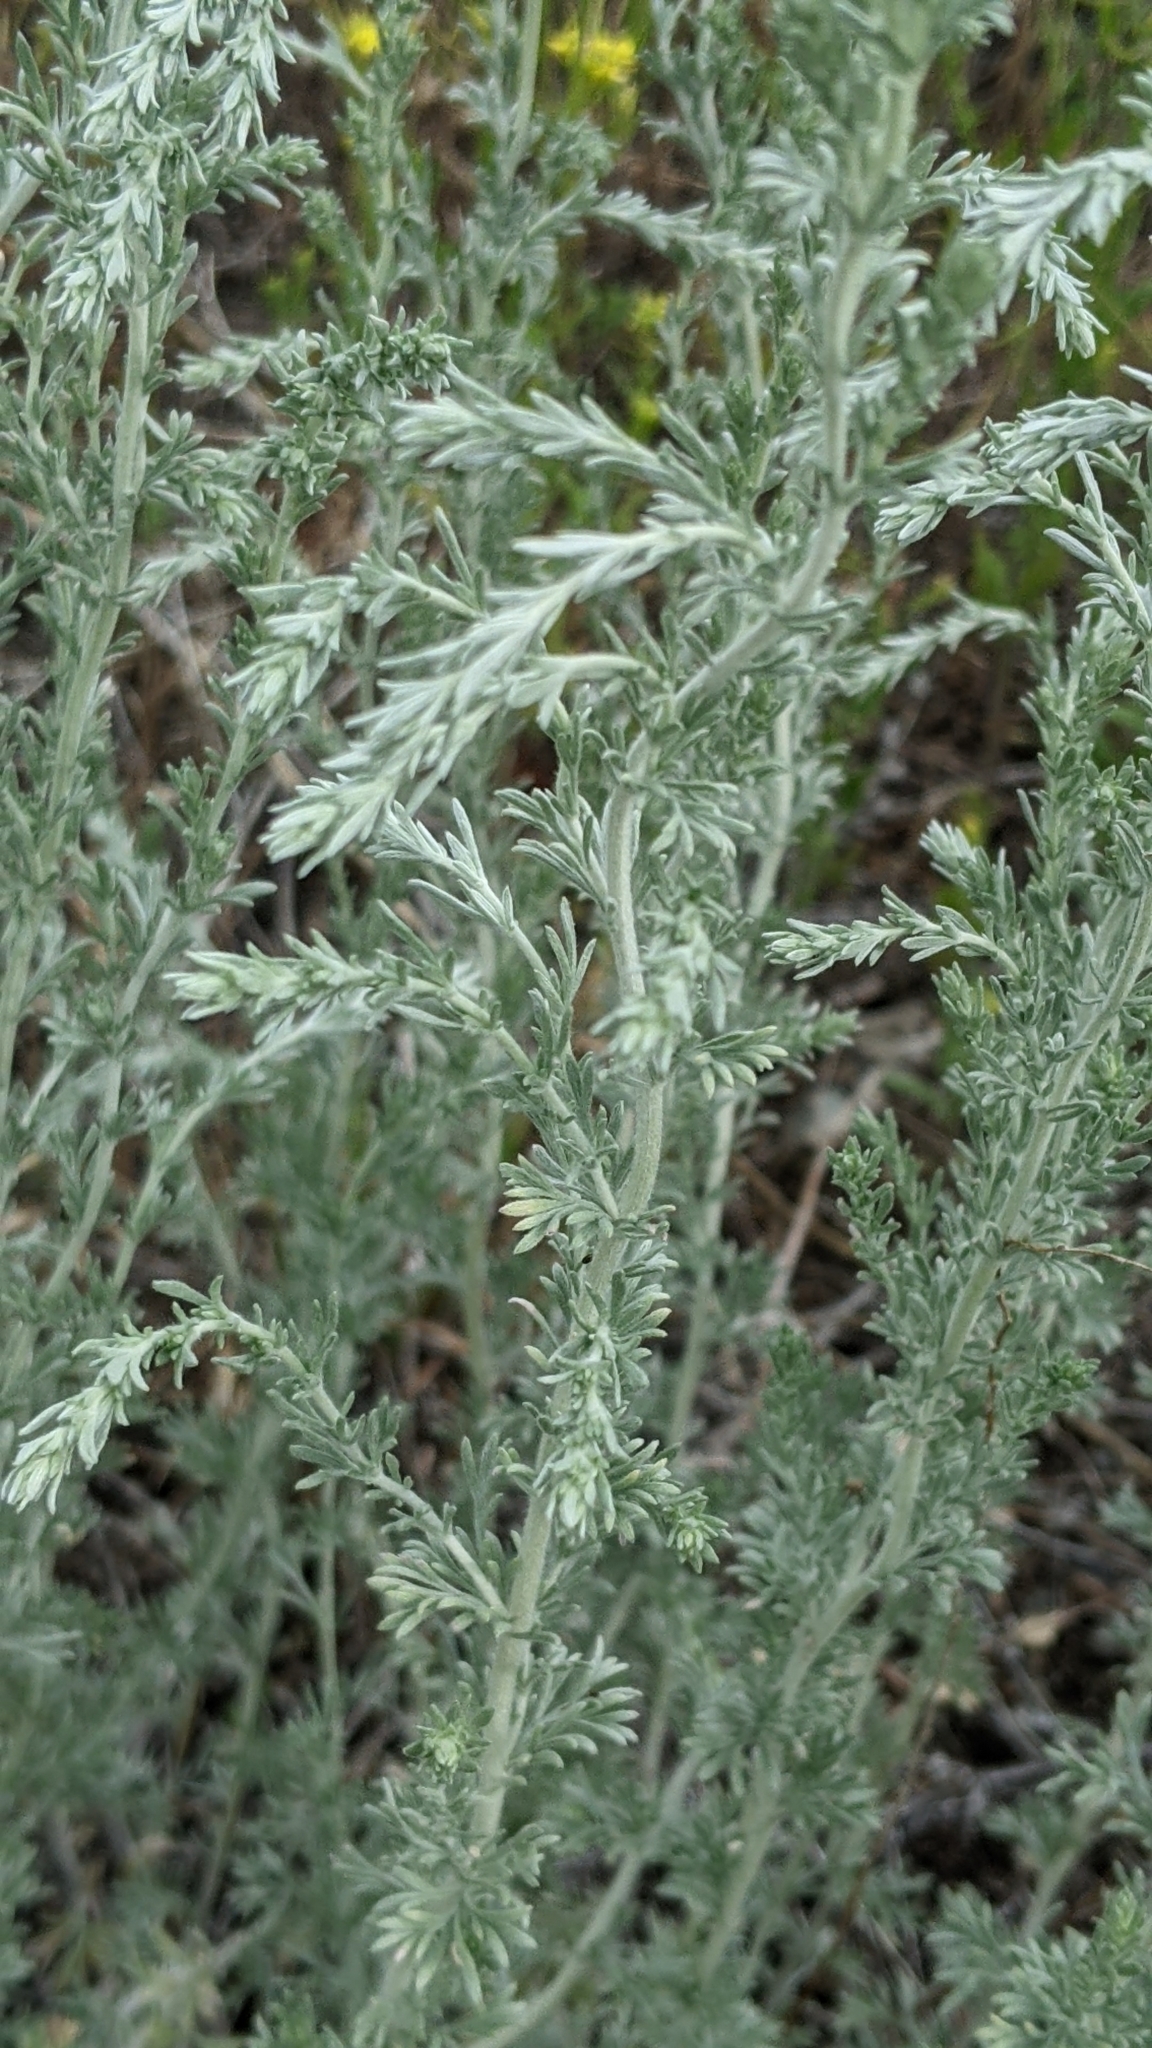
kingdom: Plantae
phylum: Tracheophyta
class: Magnoliopsida
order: Asterales
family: Asteraceae
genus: Artemisia
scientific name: Artemisia frigida
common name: Prairie sagewort
